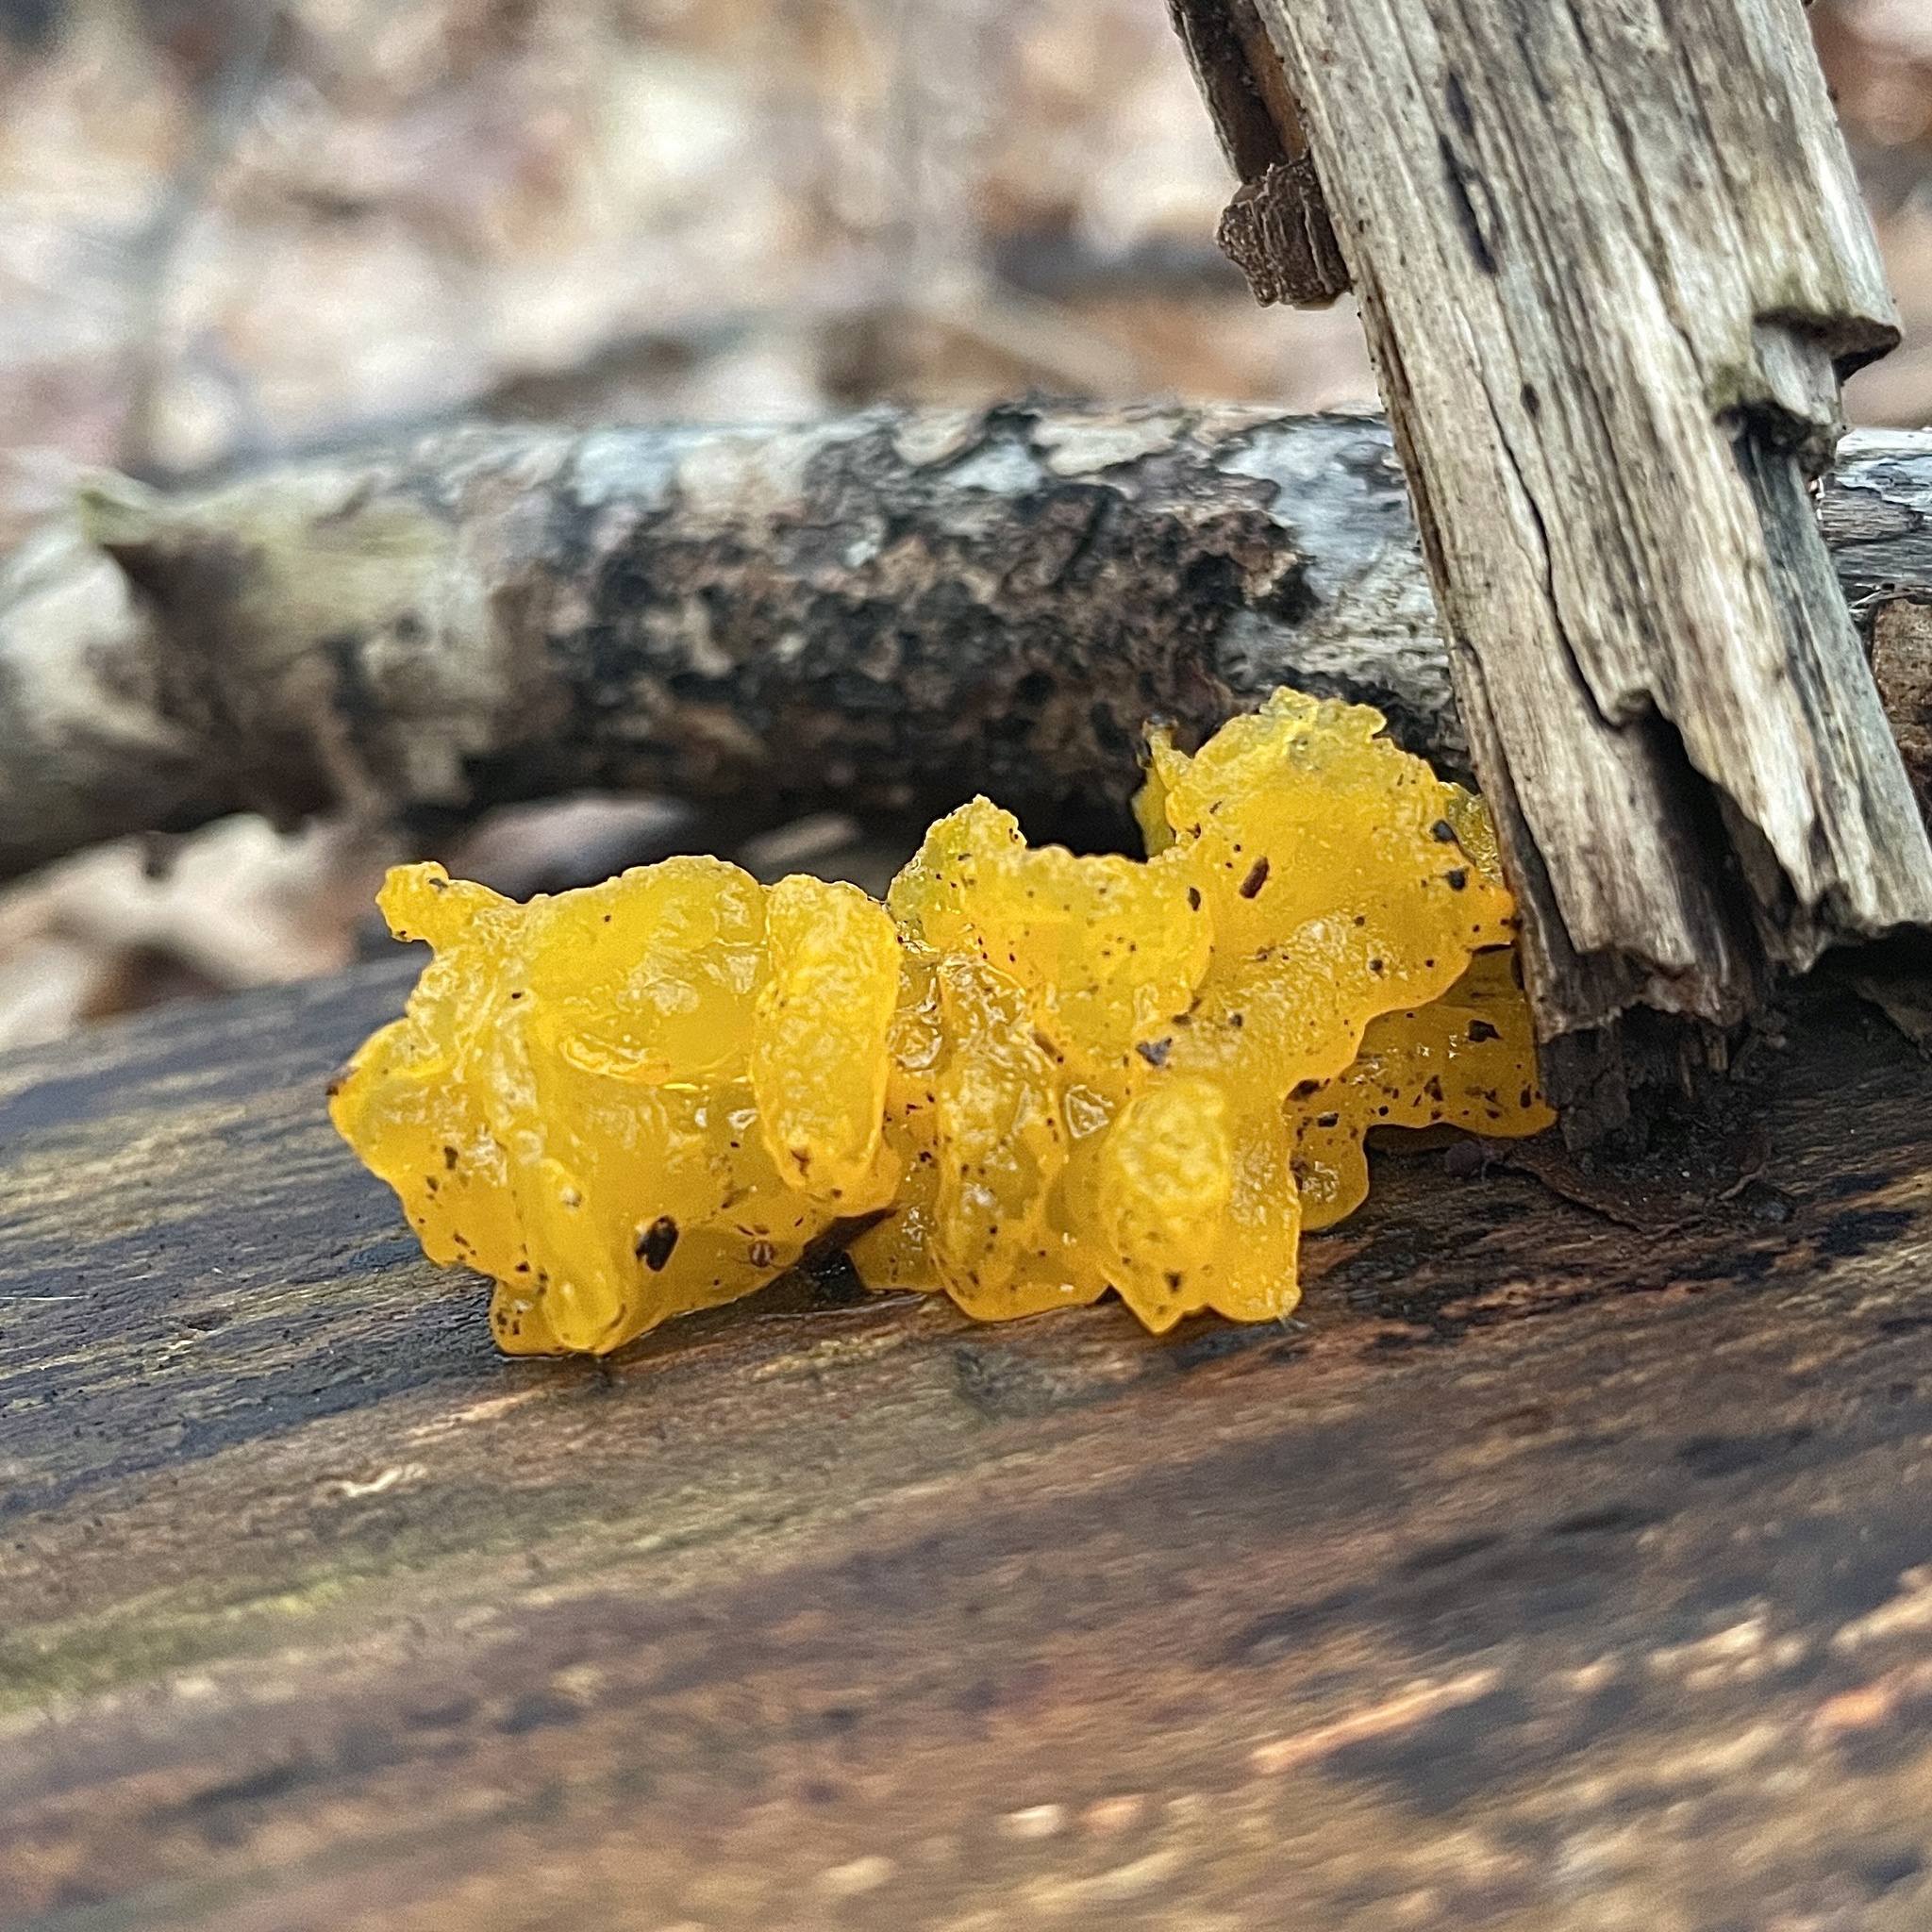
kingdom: Fungi
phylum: Basidiomycota
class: Tremellomycetes
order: Tremellales
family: Tremellaceae
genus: Tremella
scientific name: Tremella mesenterica
